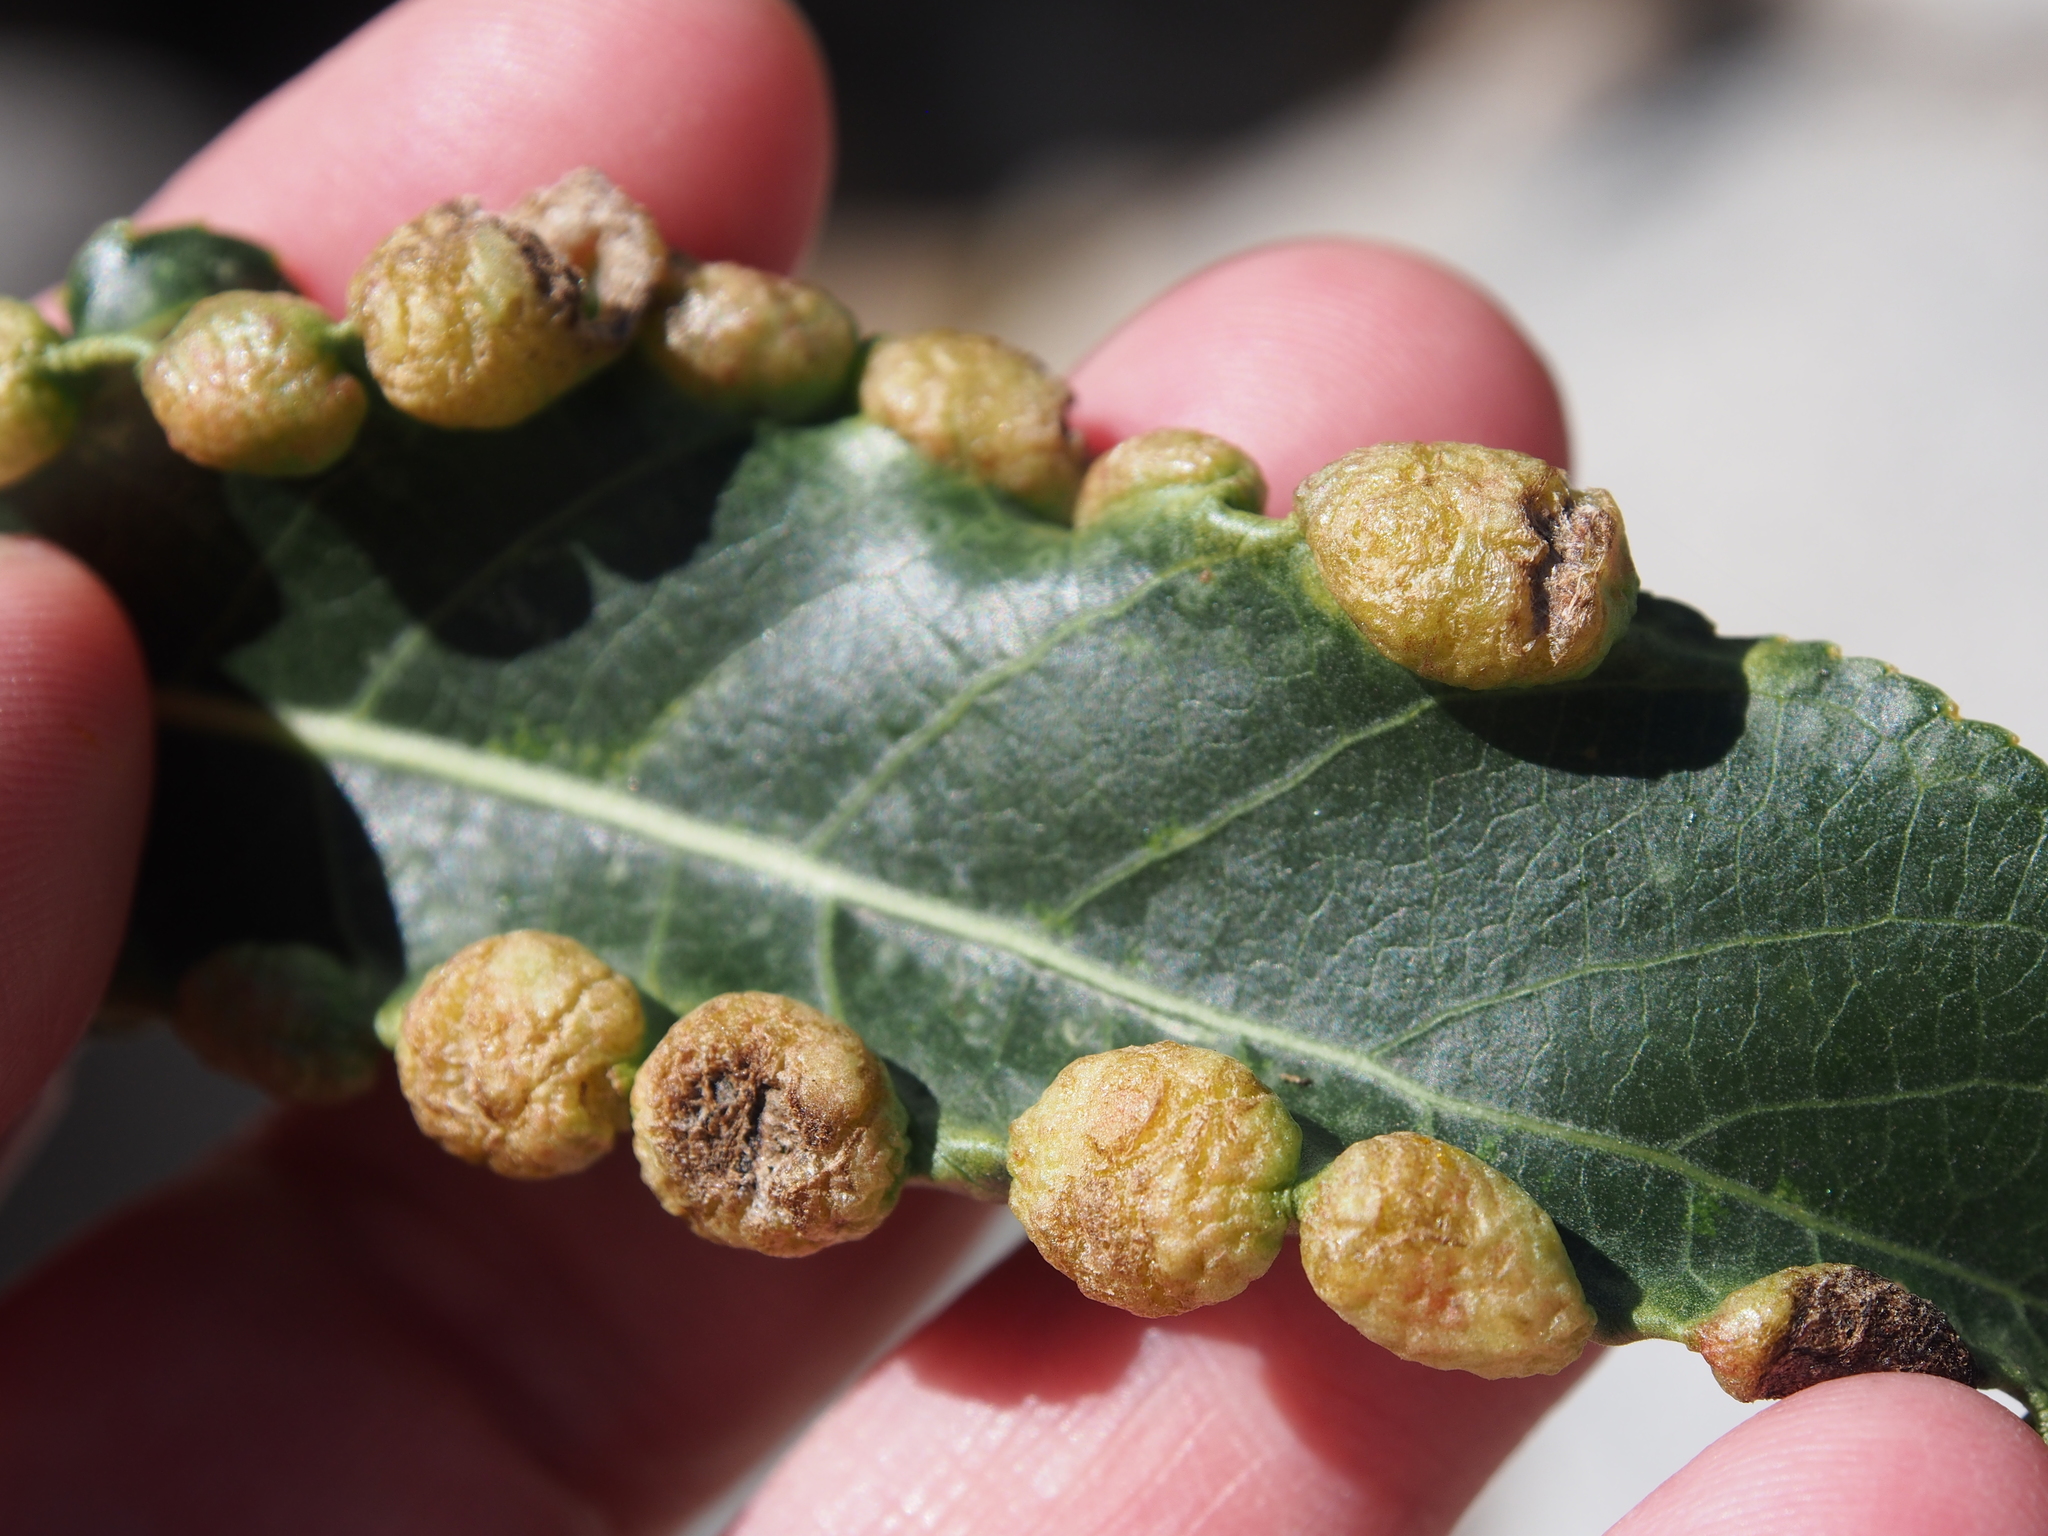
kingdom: Animalia
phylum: Arthropoda
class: Insecta
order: Hemiptera
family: Aphididae
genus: Thecabius
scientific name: Thecabius populimonilis
